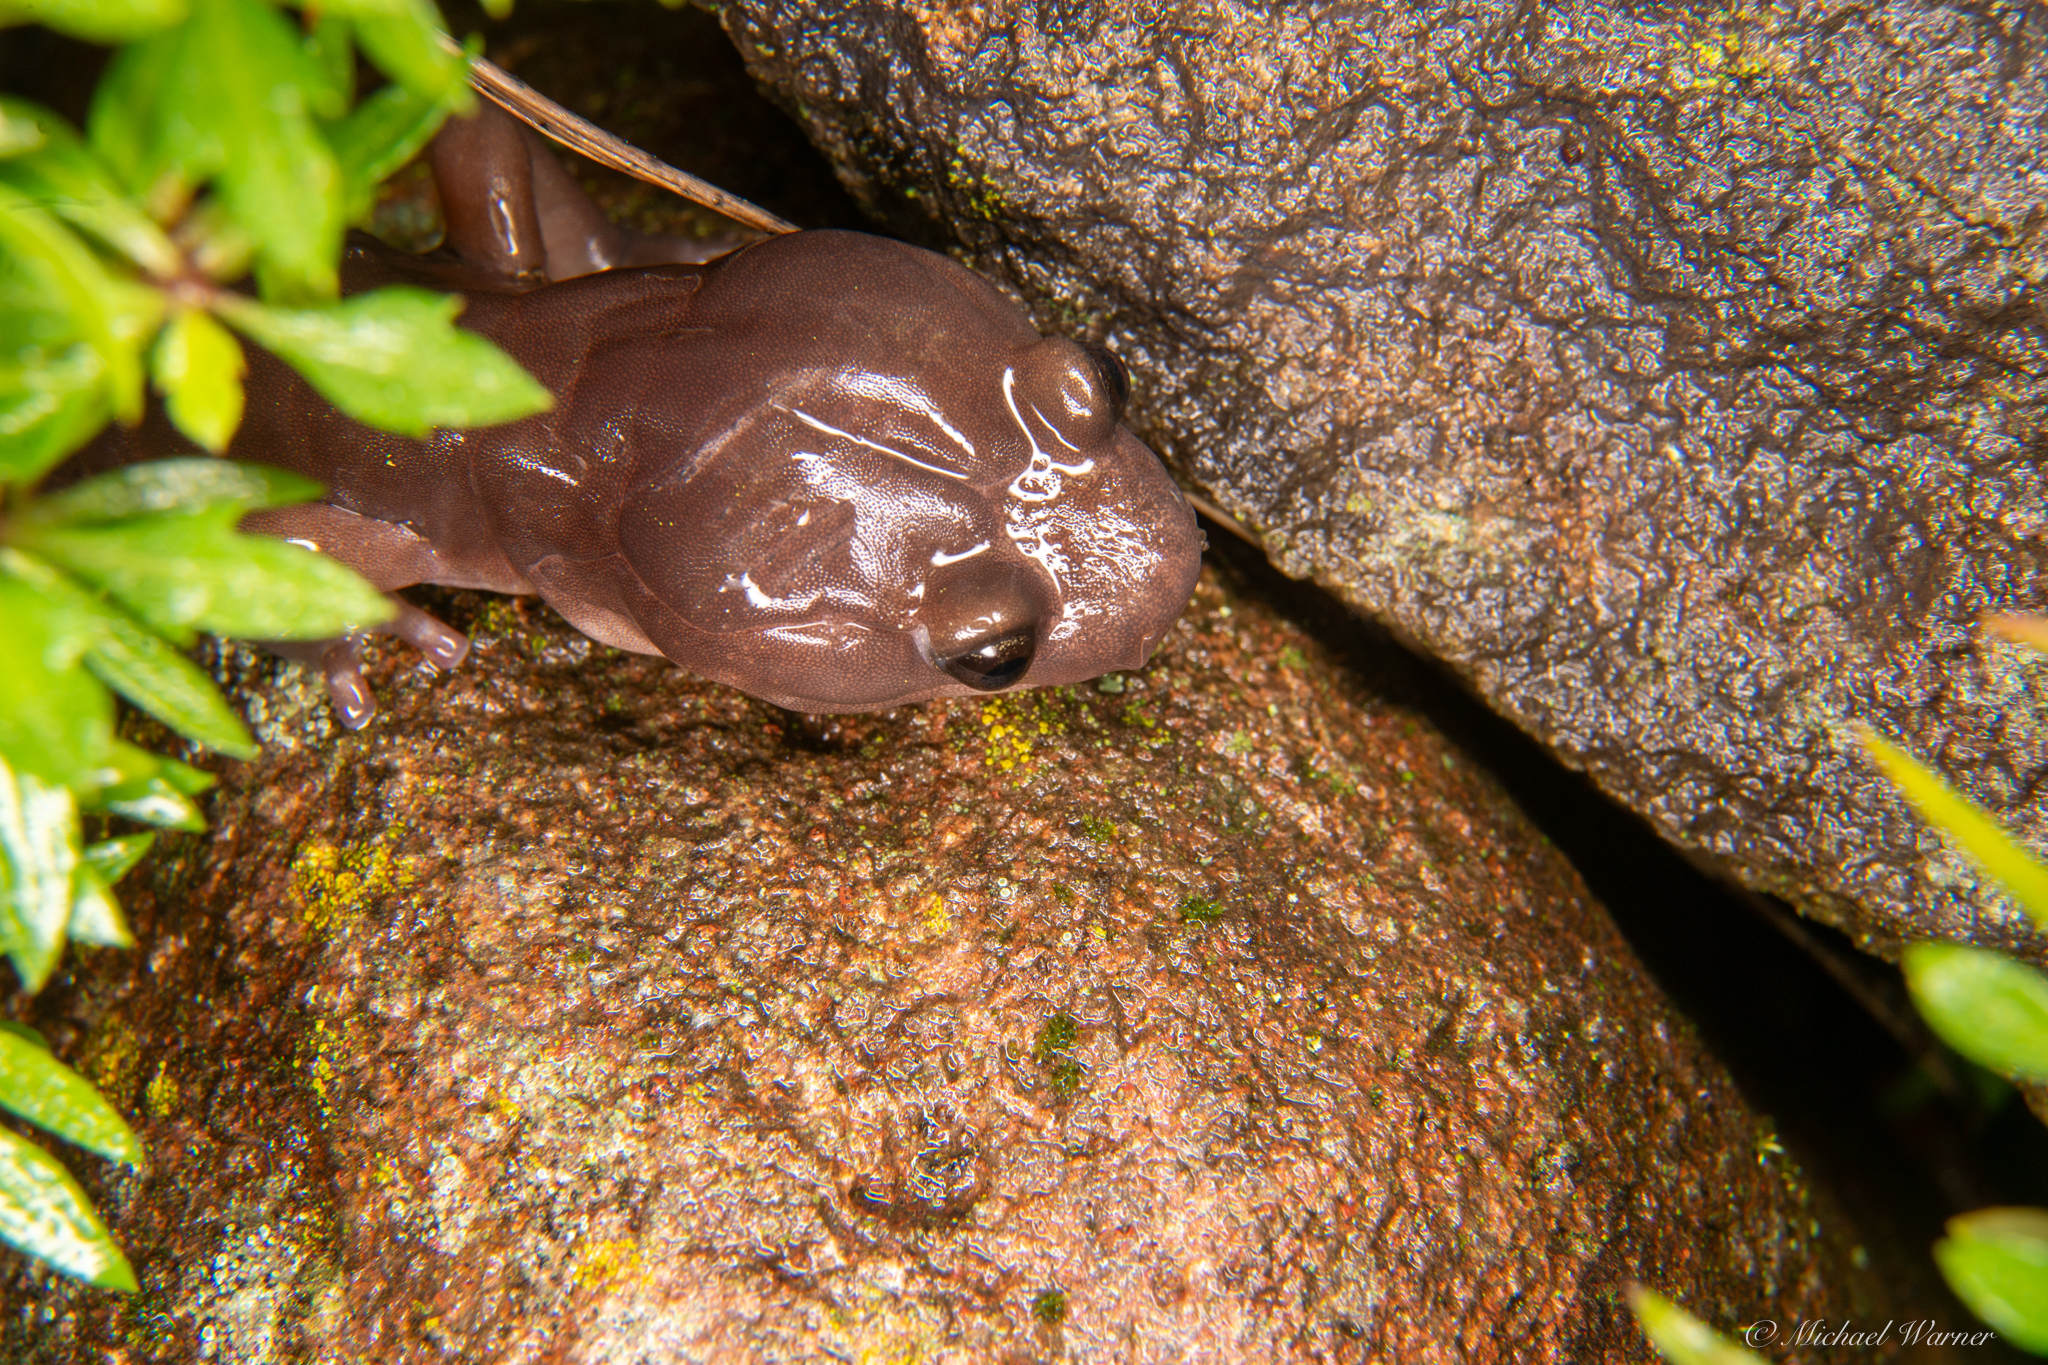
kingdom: Animalia
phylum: Chordata
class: Amphibia
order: Caudata
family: Plethodontidae
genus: Aneides
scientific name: Aneides lugubris
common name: Arboreal salamander
